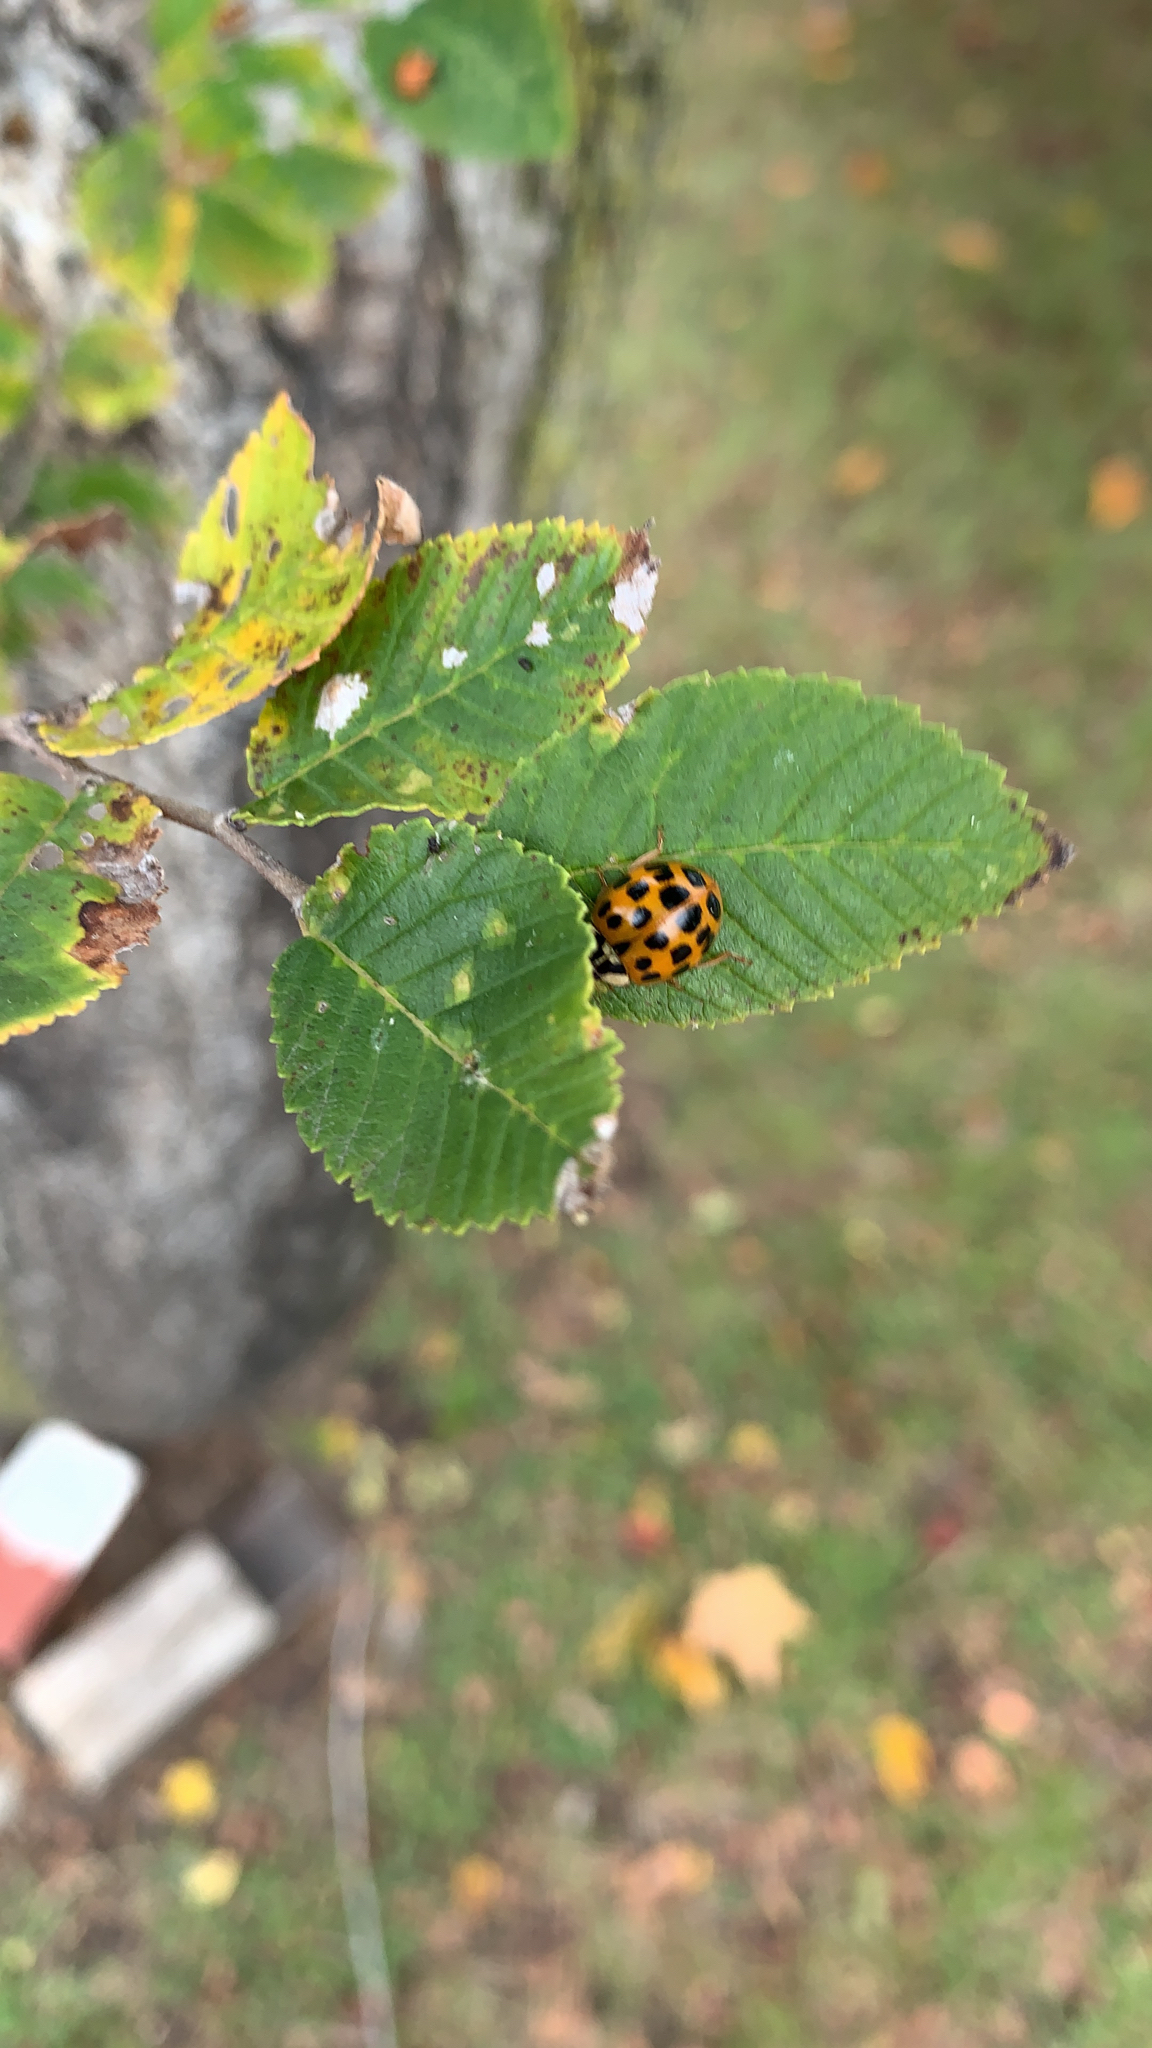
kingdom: Animalia
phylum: Arthropoda
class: Insecta
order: Coleoptera
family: Coccinellidae
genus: Harmonia
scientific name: Harmonia axyridis
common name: Harlequin ladybird
